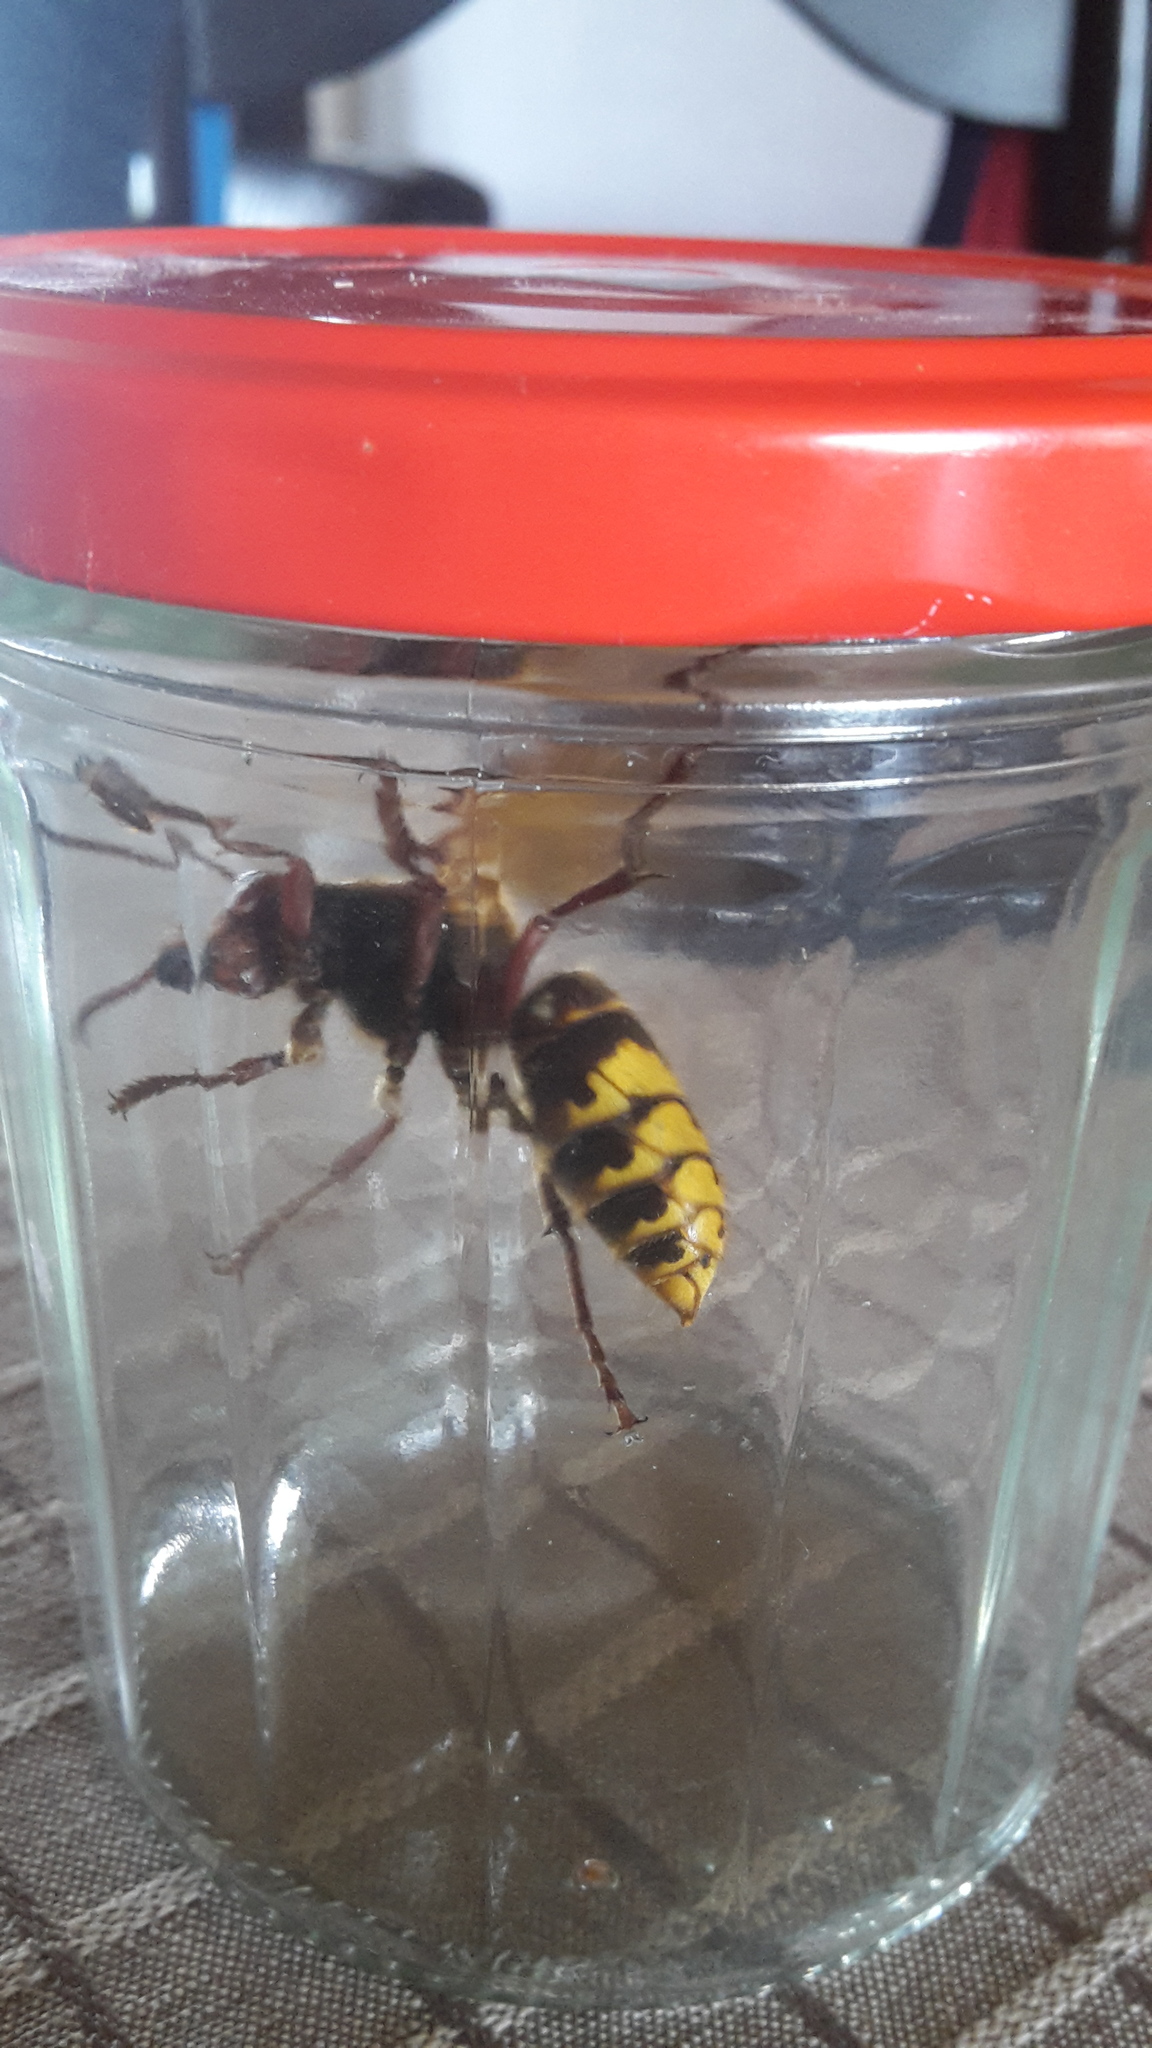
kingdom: Animalia
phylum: Arthropoda
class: Insecta
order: Hymenoptera
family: Vespidae
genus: Vespa
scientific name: Vespa crabro
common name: Hornet
